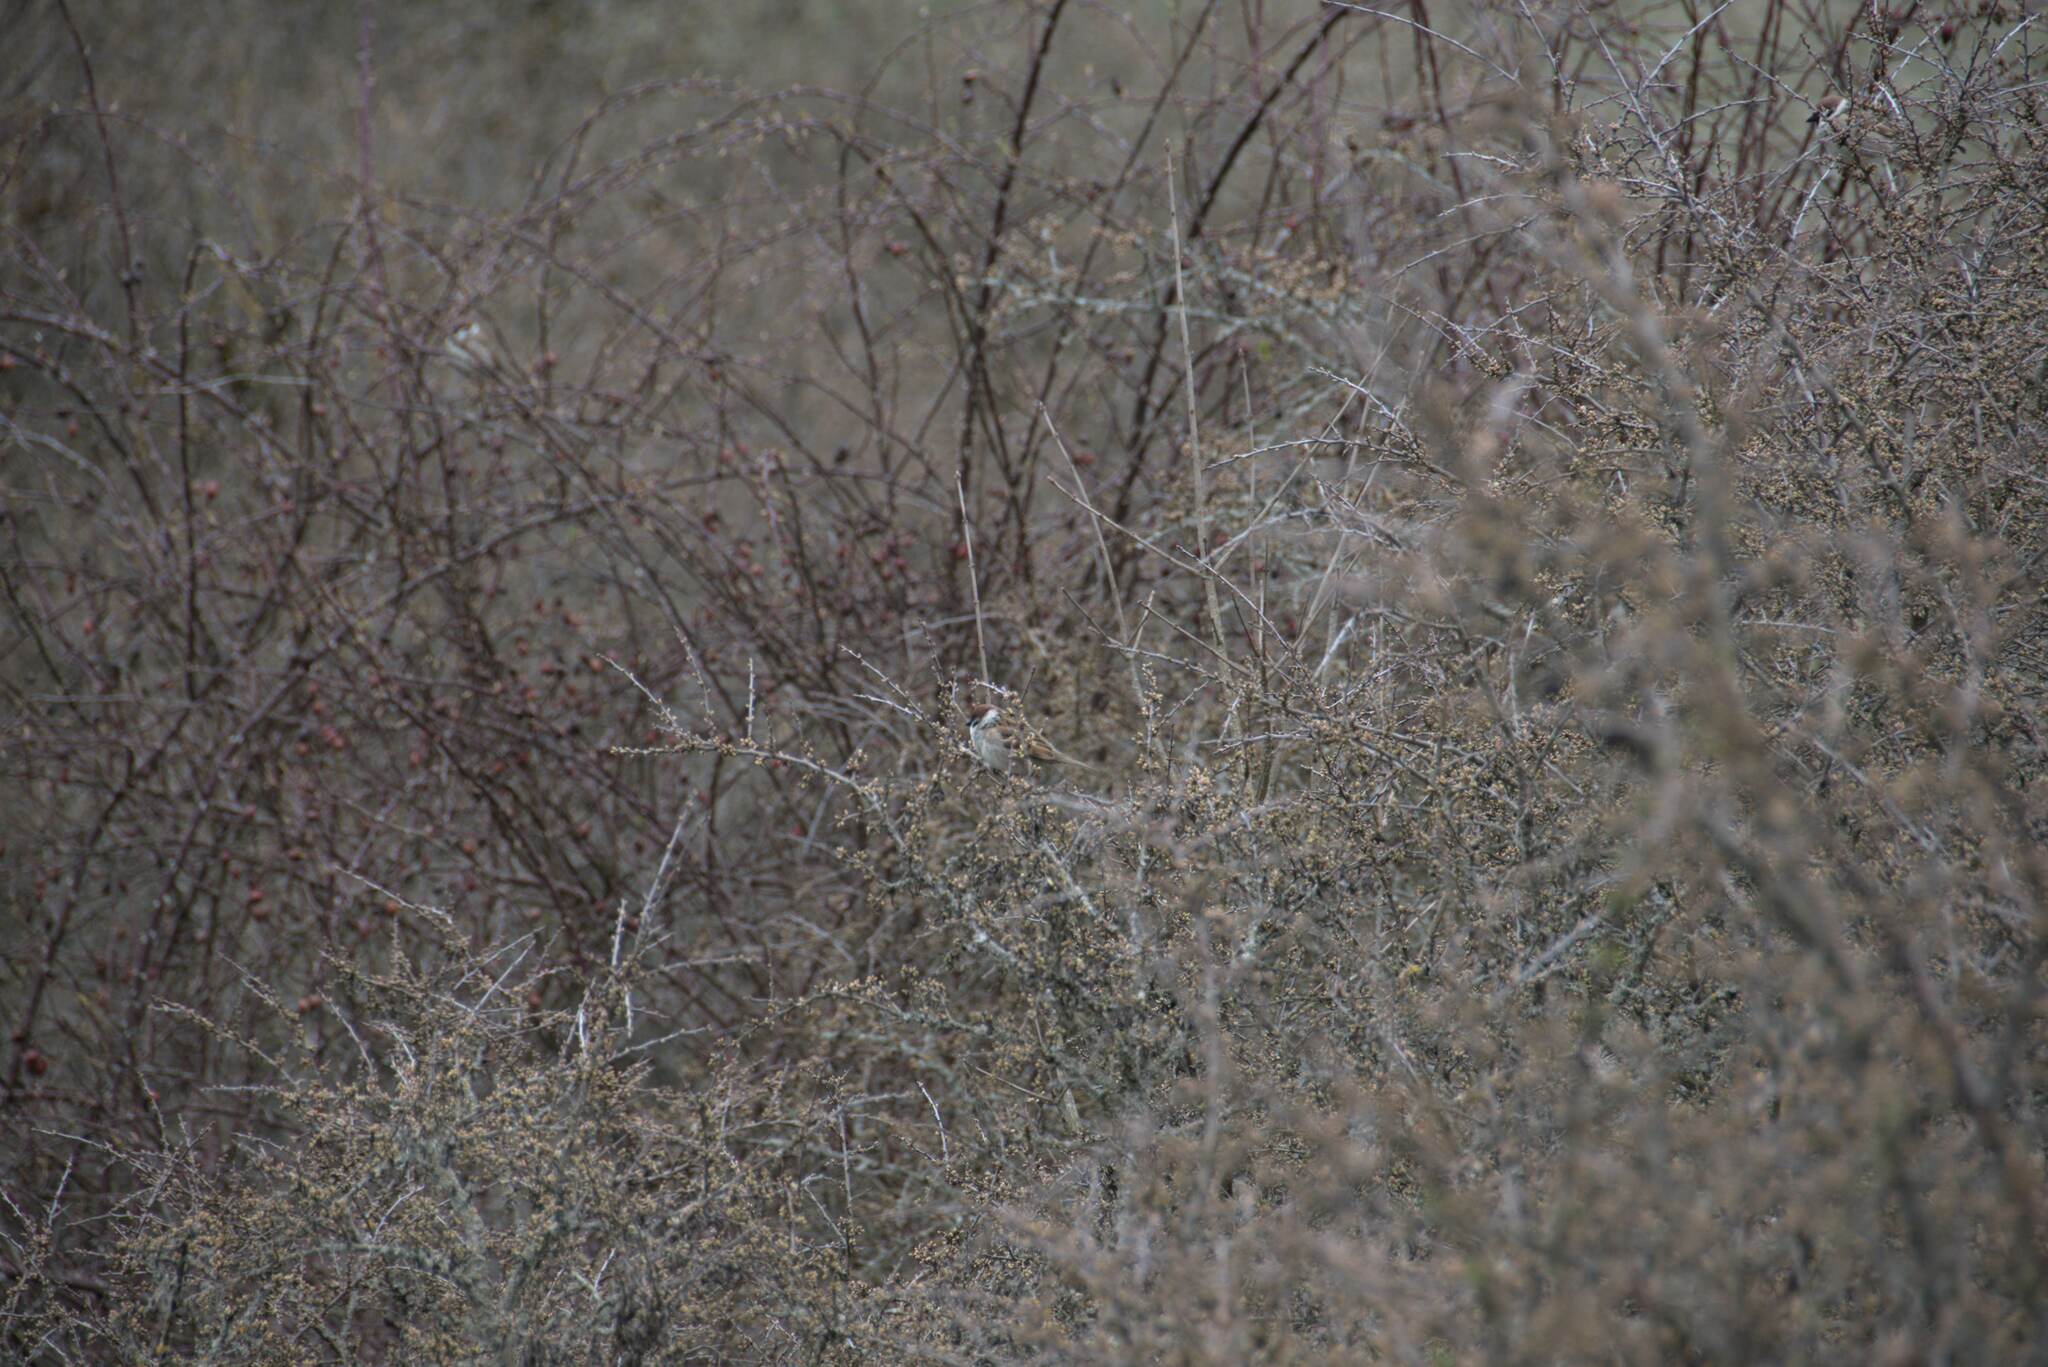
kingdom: Animalia
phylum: Chordata
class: Aves
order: Passeriformes
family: Passeridae
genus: Passer
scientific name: Passer montanus
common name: Eurasian tree sparrow
